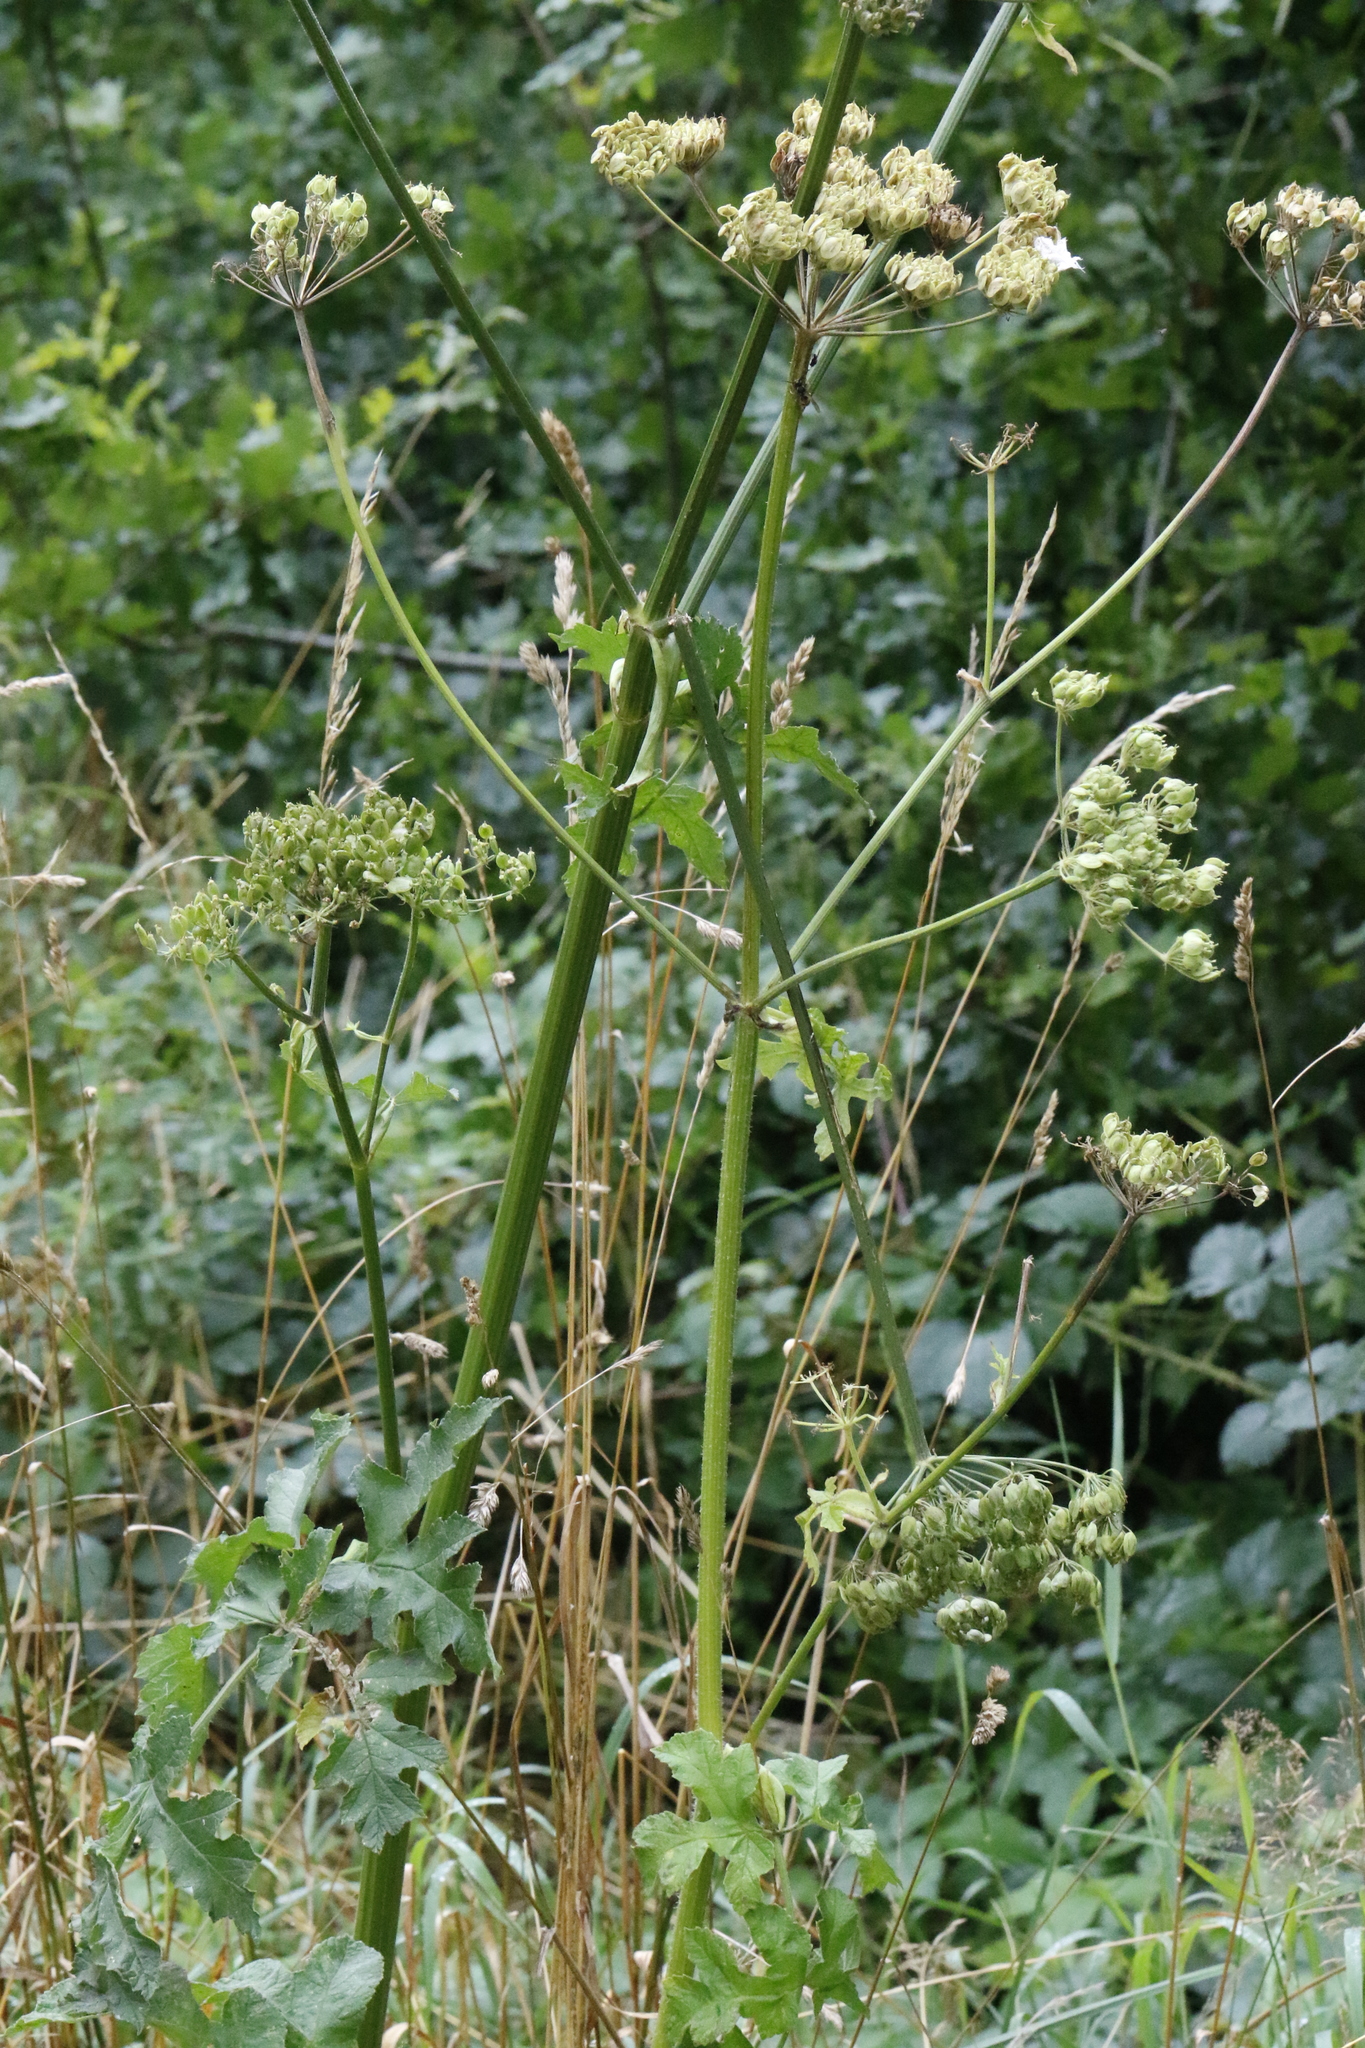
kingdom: Plantae
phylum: Tracheophyta
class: Magnoliopsida
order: Apiales
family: Apiaceae
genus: Heracleum
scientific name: Heracleum sphondylium
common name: Hogweed
